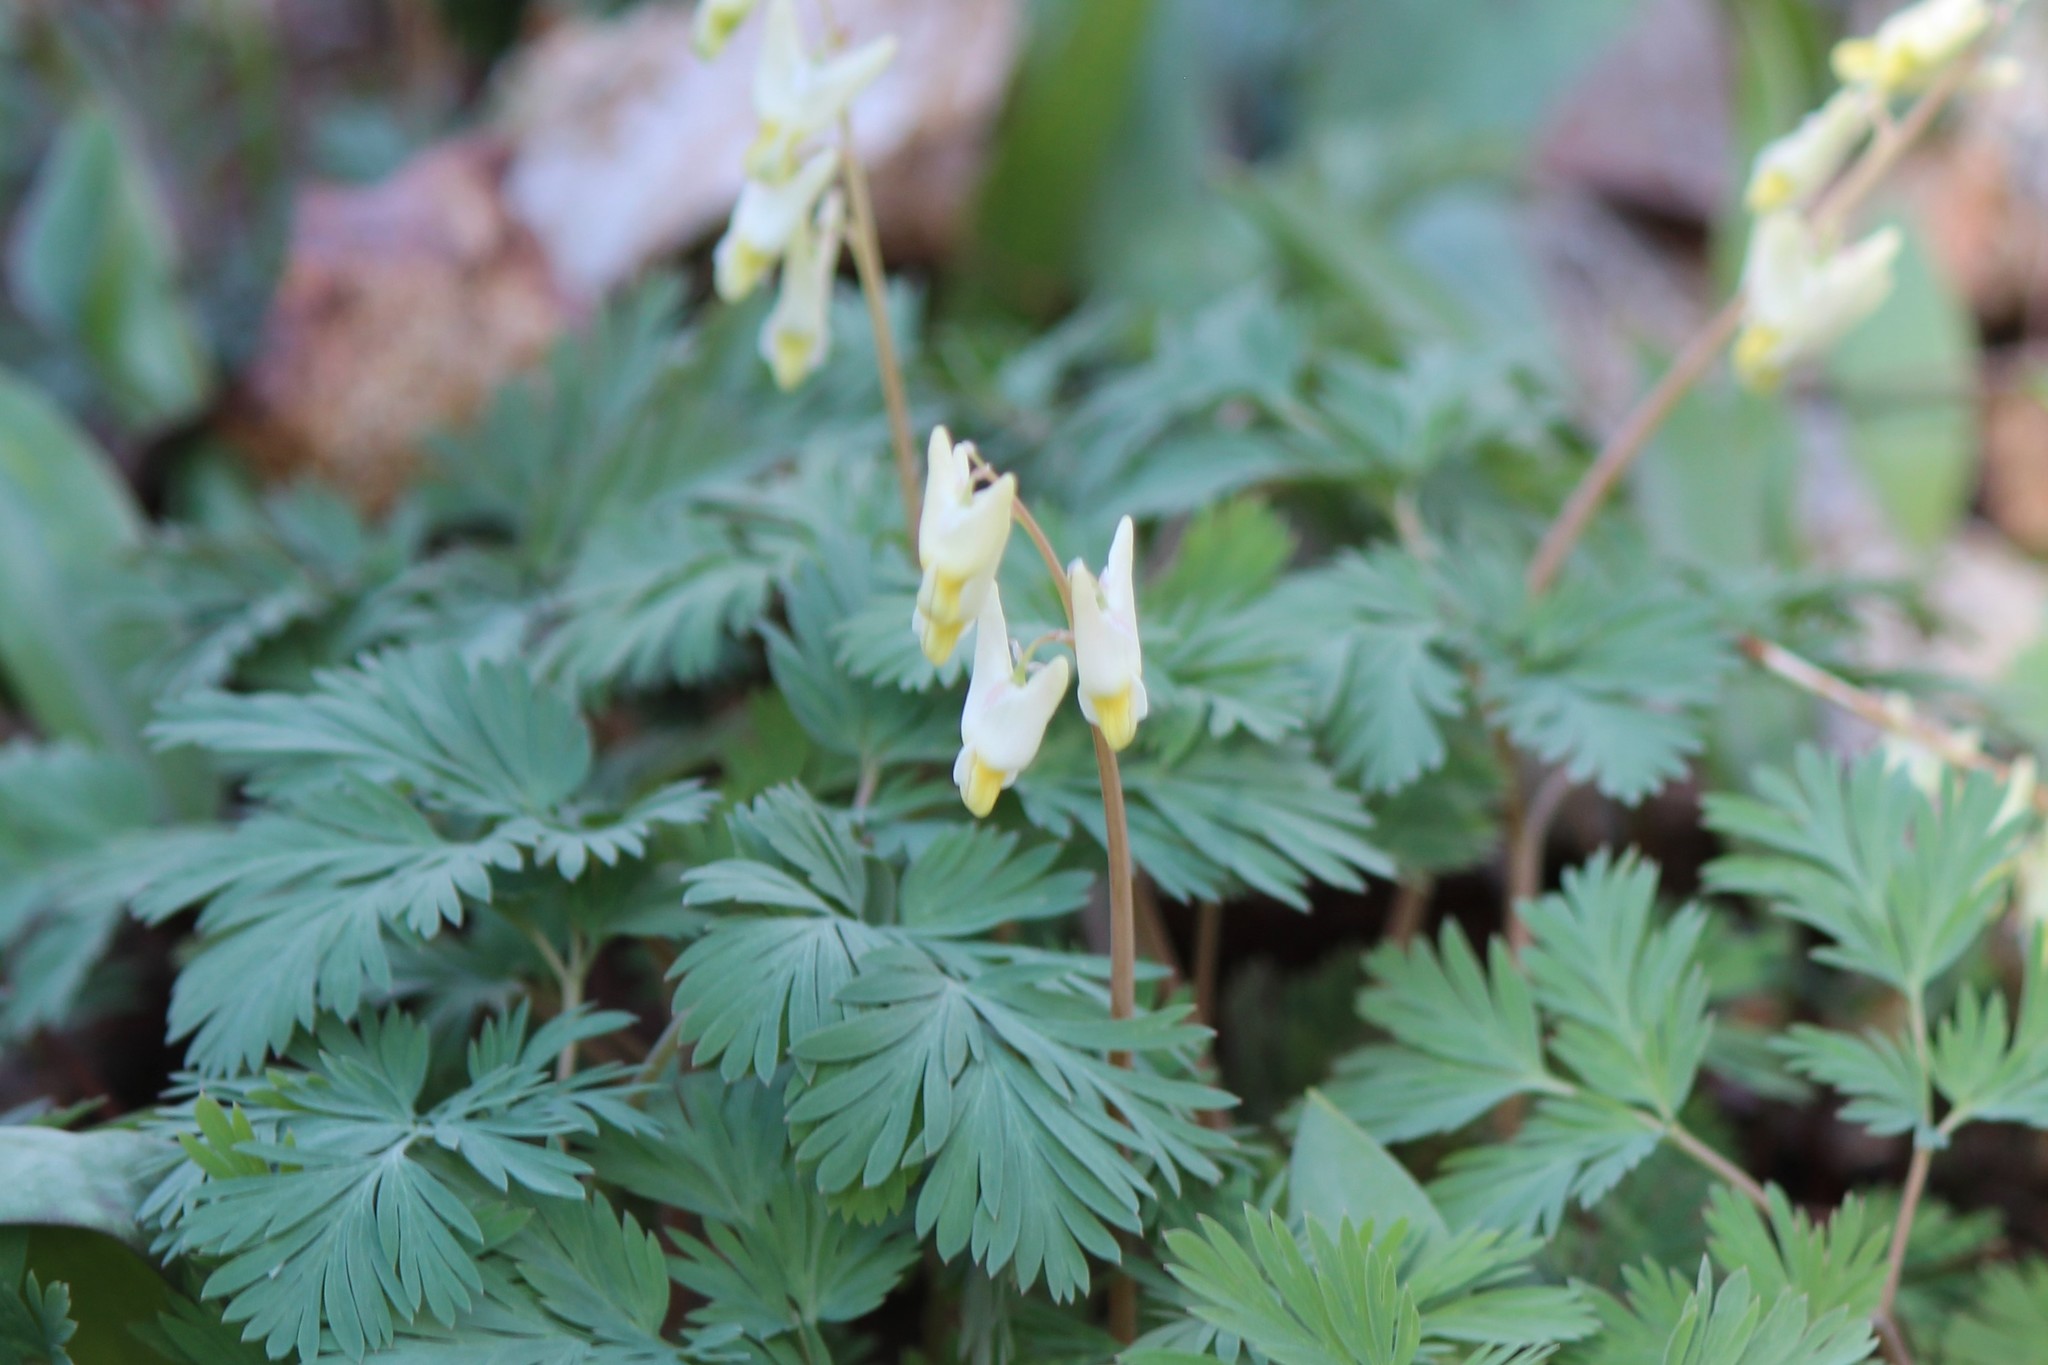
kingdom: Plantae
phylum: Tracheophyta
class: Magnoliopsida
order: Ranunculales
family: Papaveraceae
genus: Dicentra
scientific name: Dicentra cucullaria
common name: Dutchman's breeches
